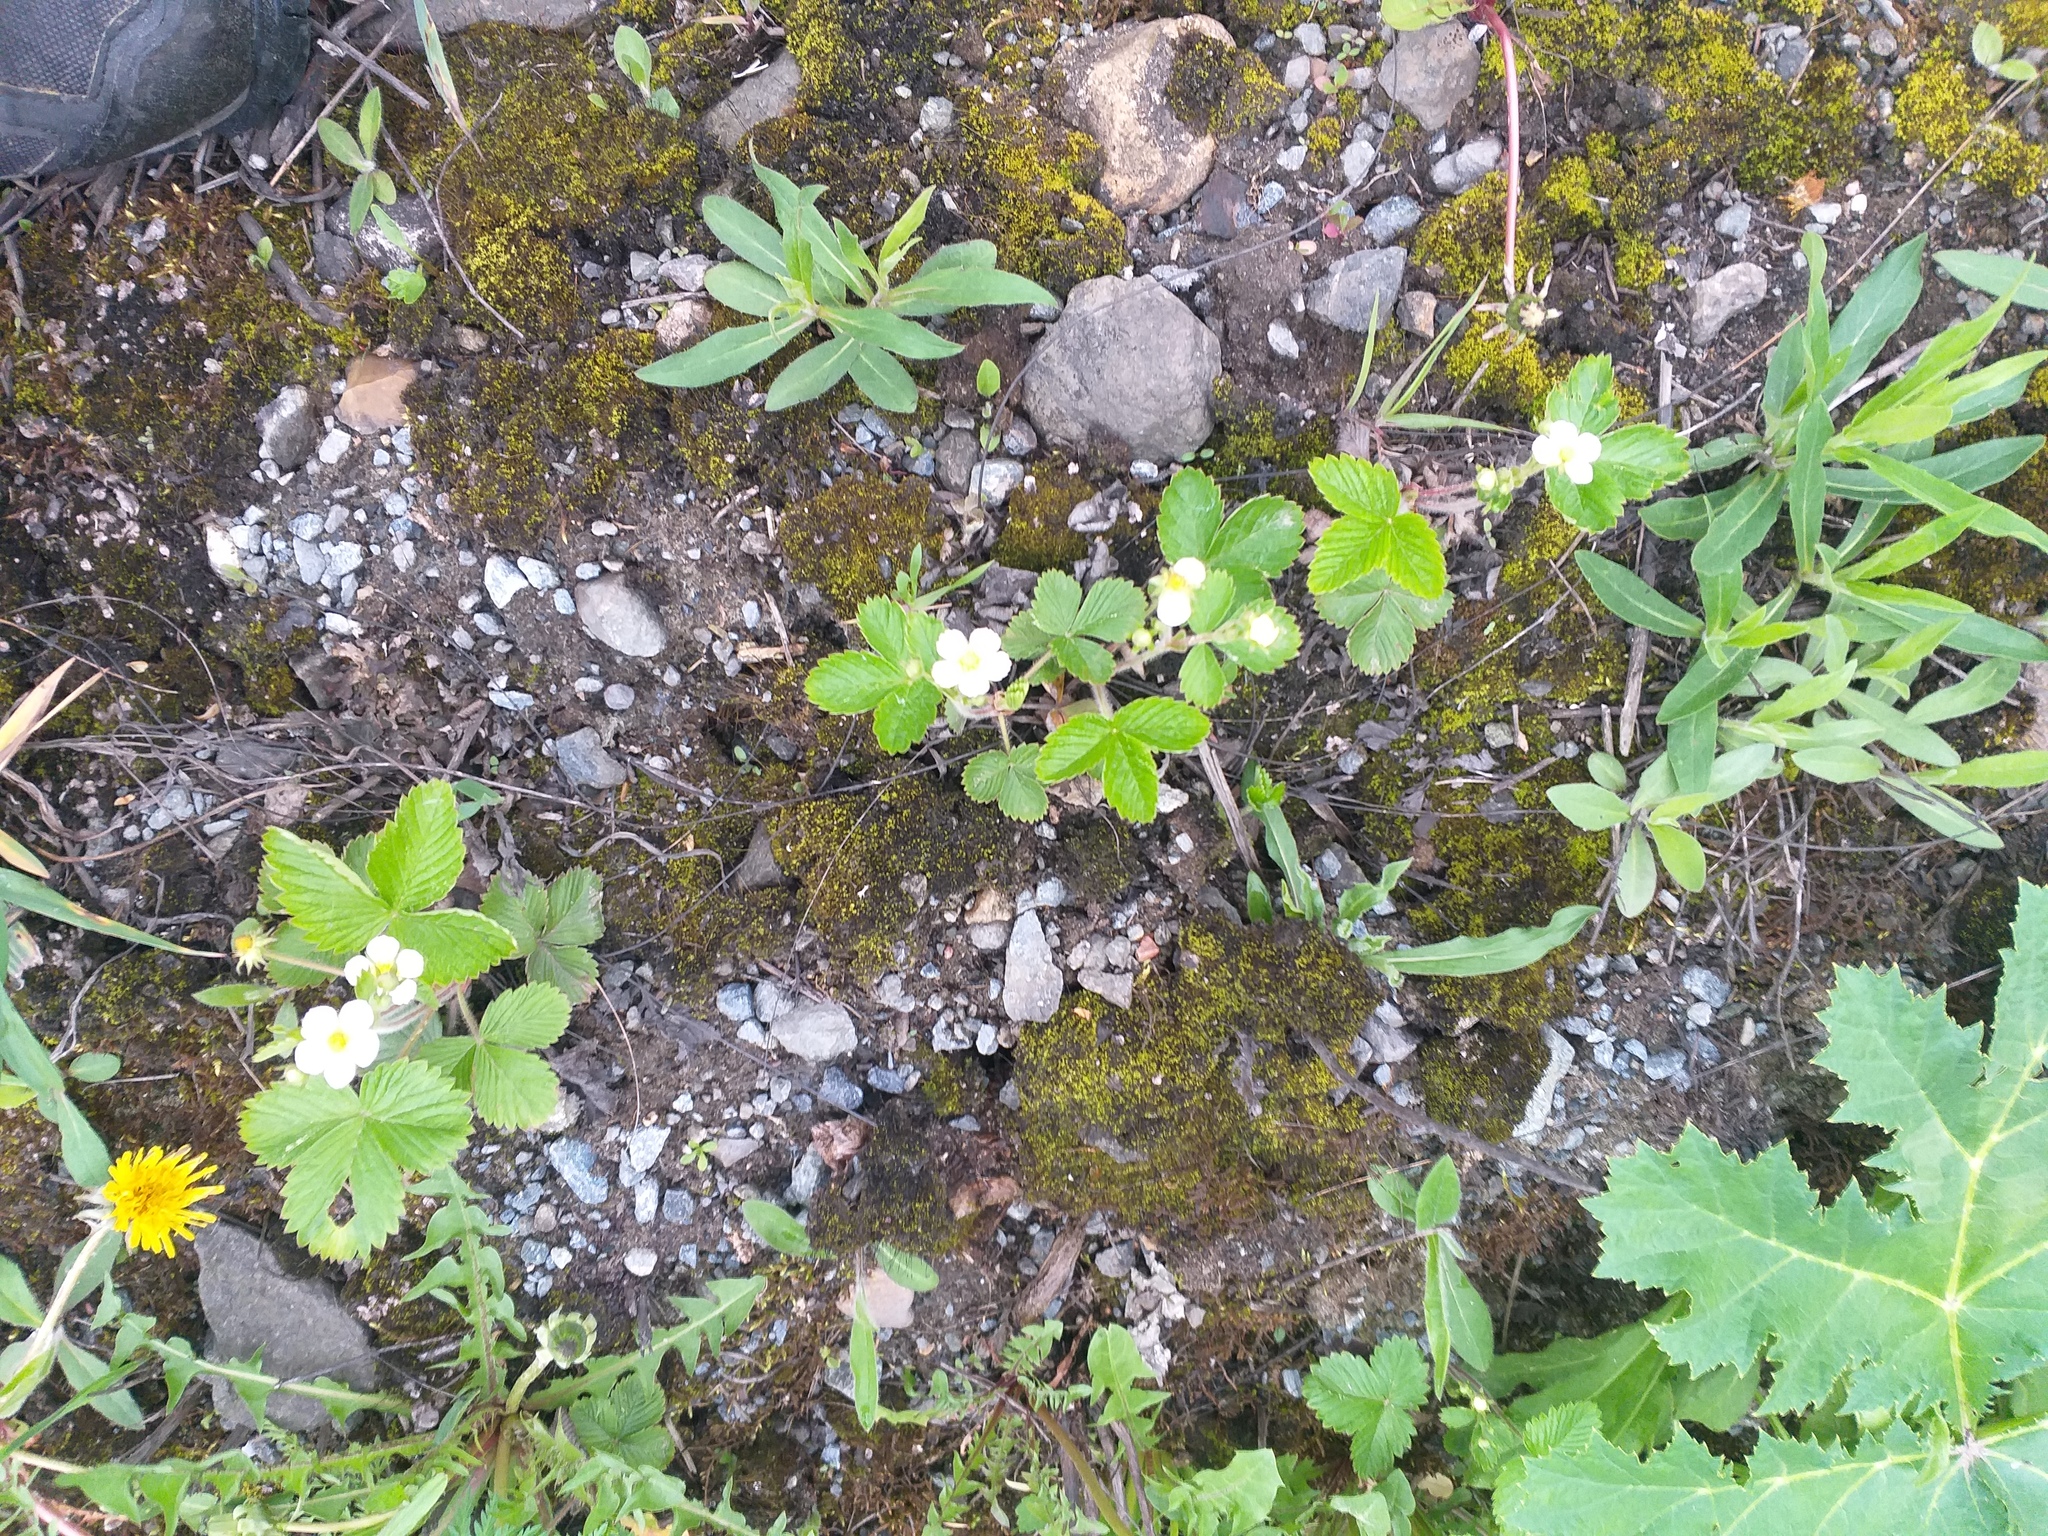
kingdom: Plantae
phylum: Tracheophyta
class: Magnoliopsida
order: Rosales
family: Rosaceae
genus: Fragaria
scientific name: Fragaria vesca
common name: Wild strawberry
